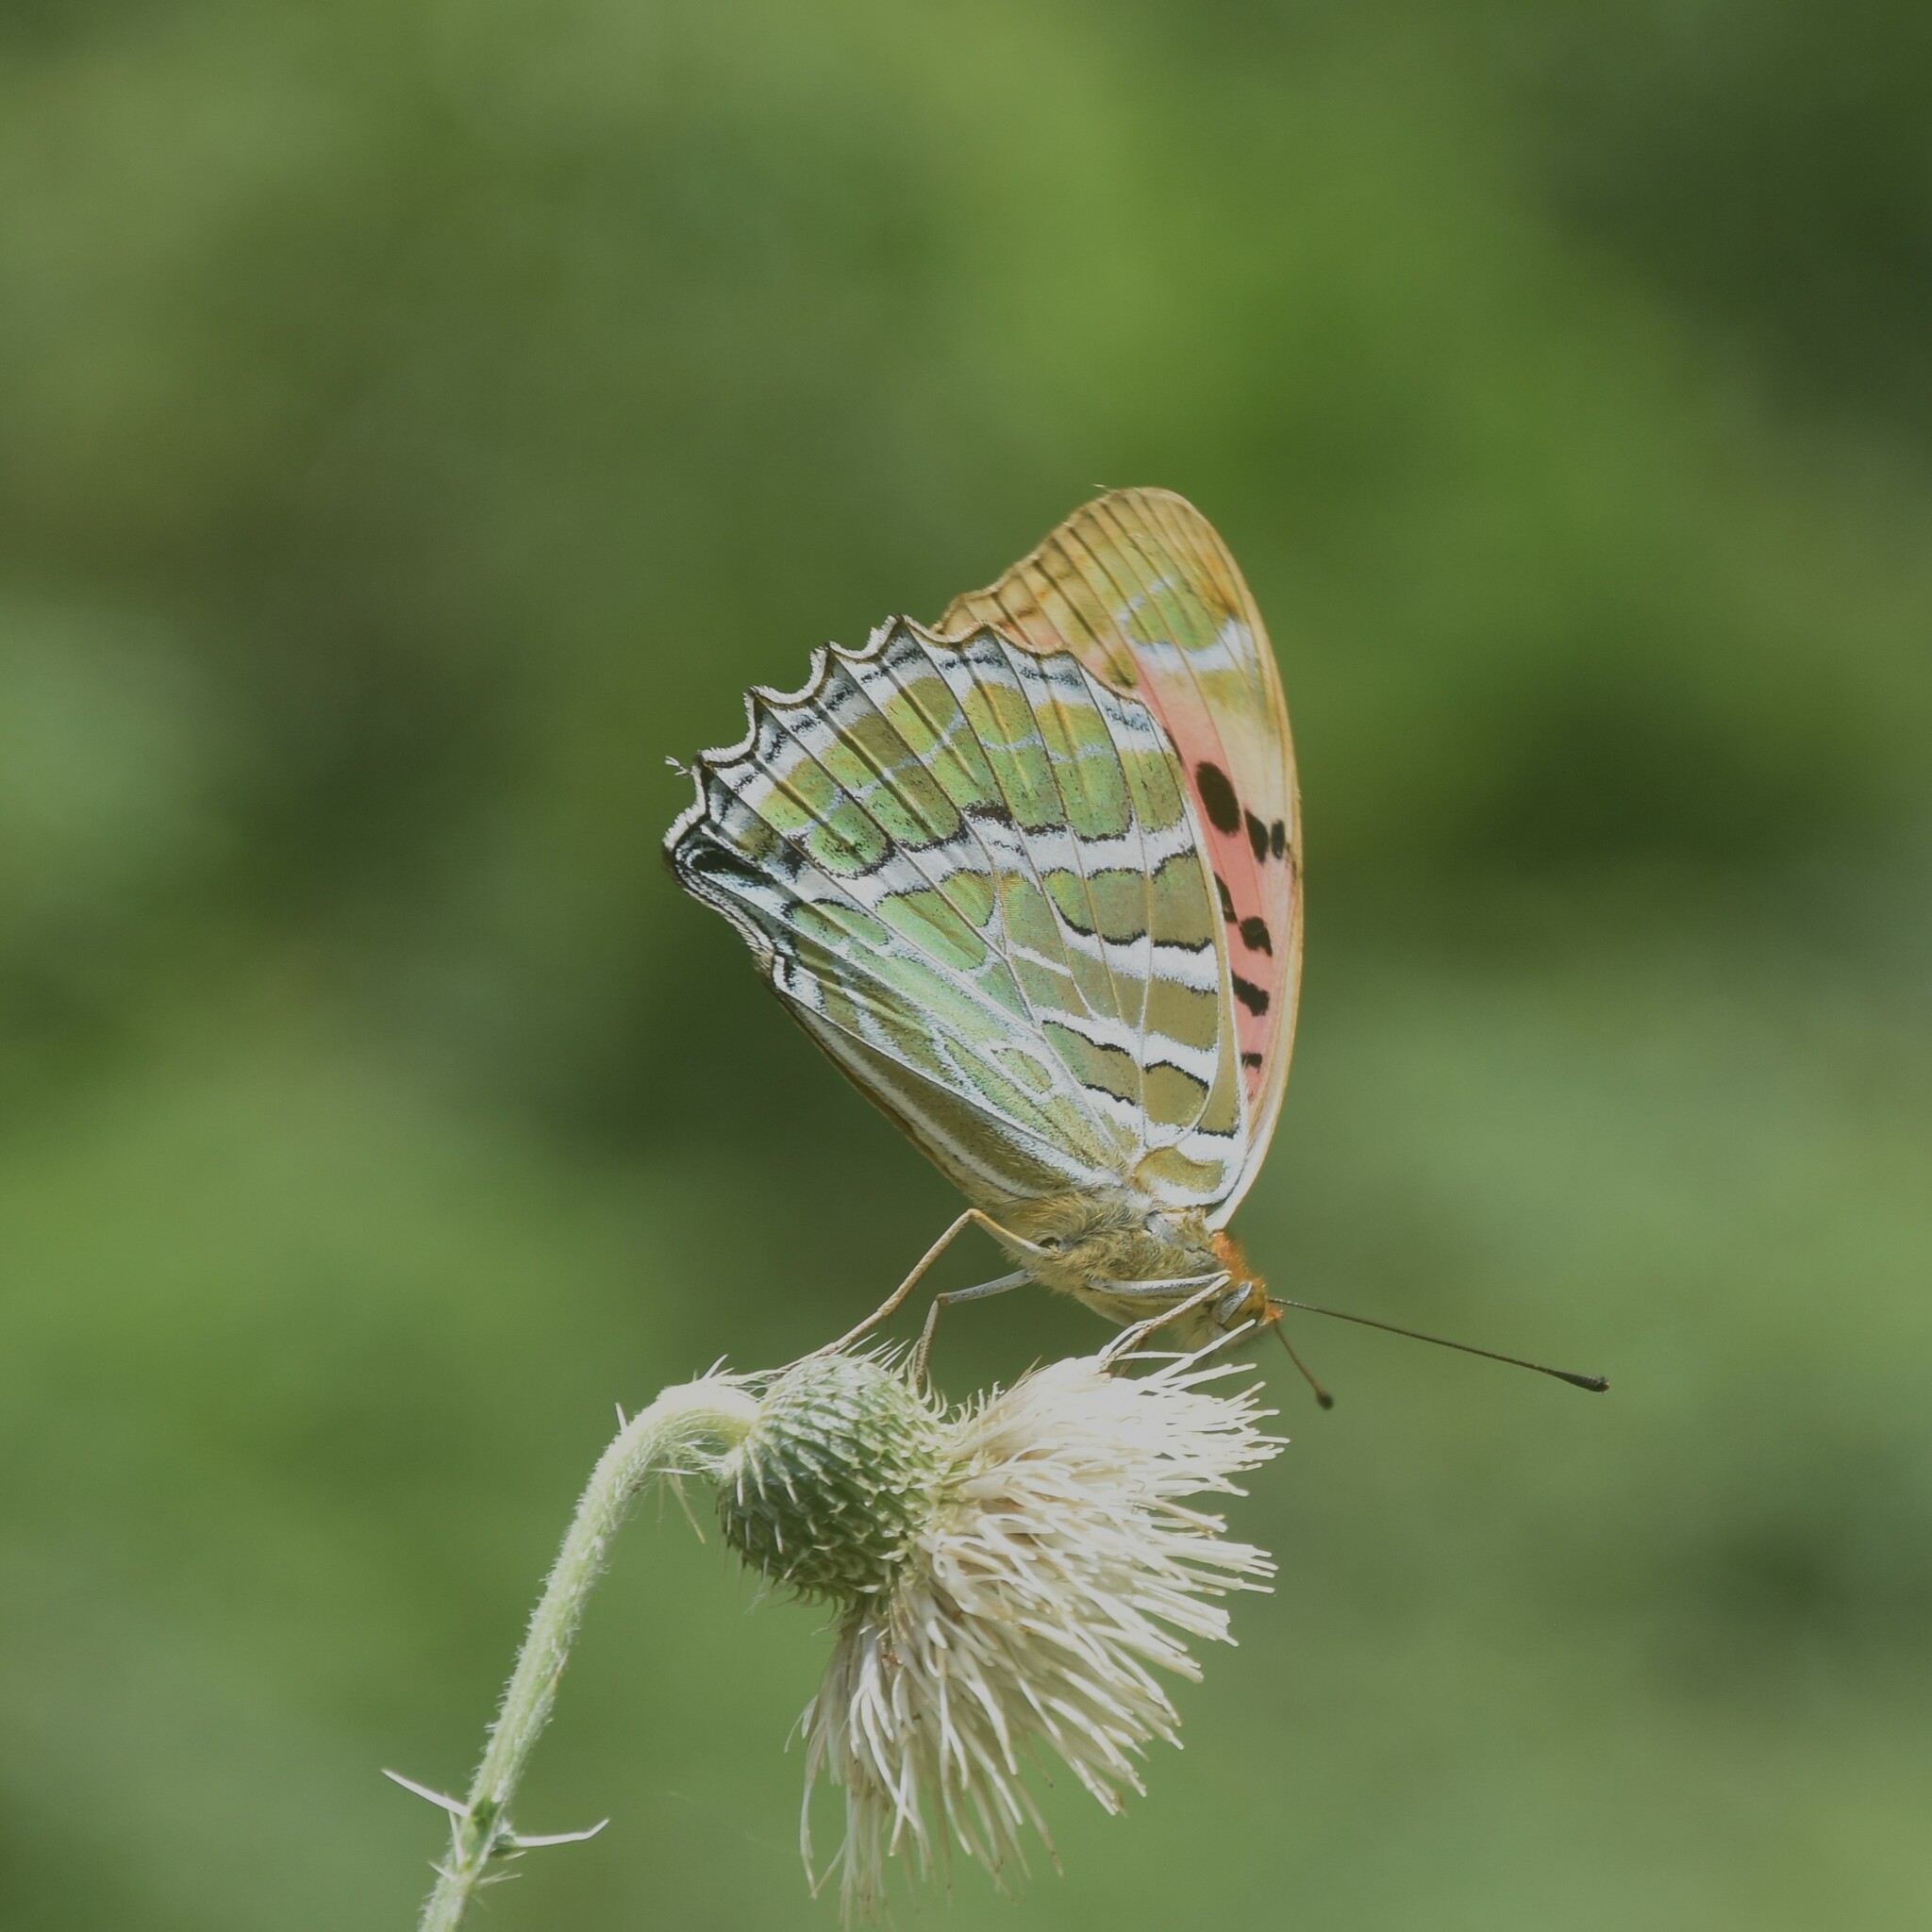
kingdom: Animalia
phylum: Arthropoda
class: Insecta
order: Lepidoptera
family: Nymphalidae
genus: Childrena
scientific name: Childrena childreni
